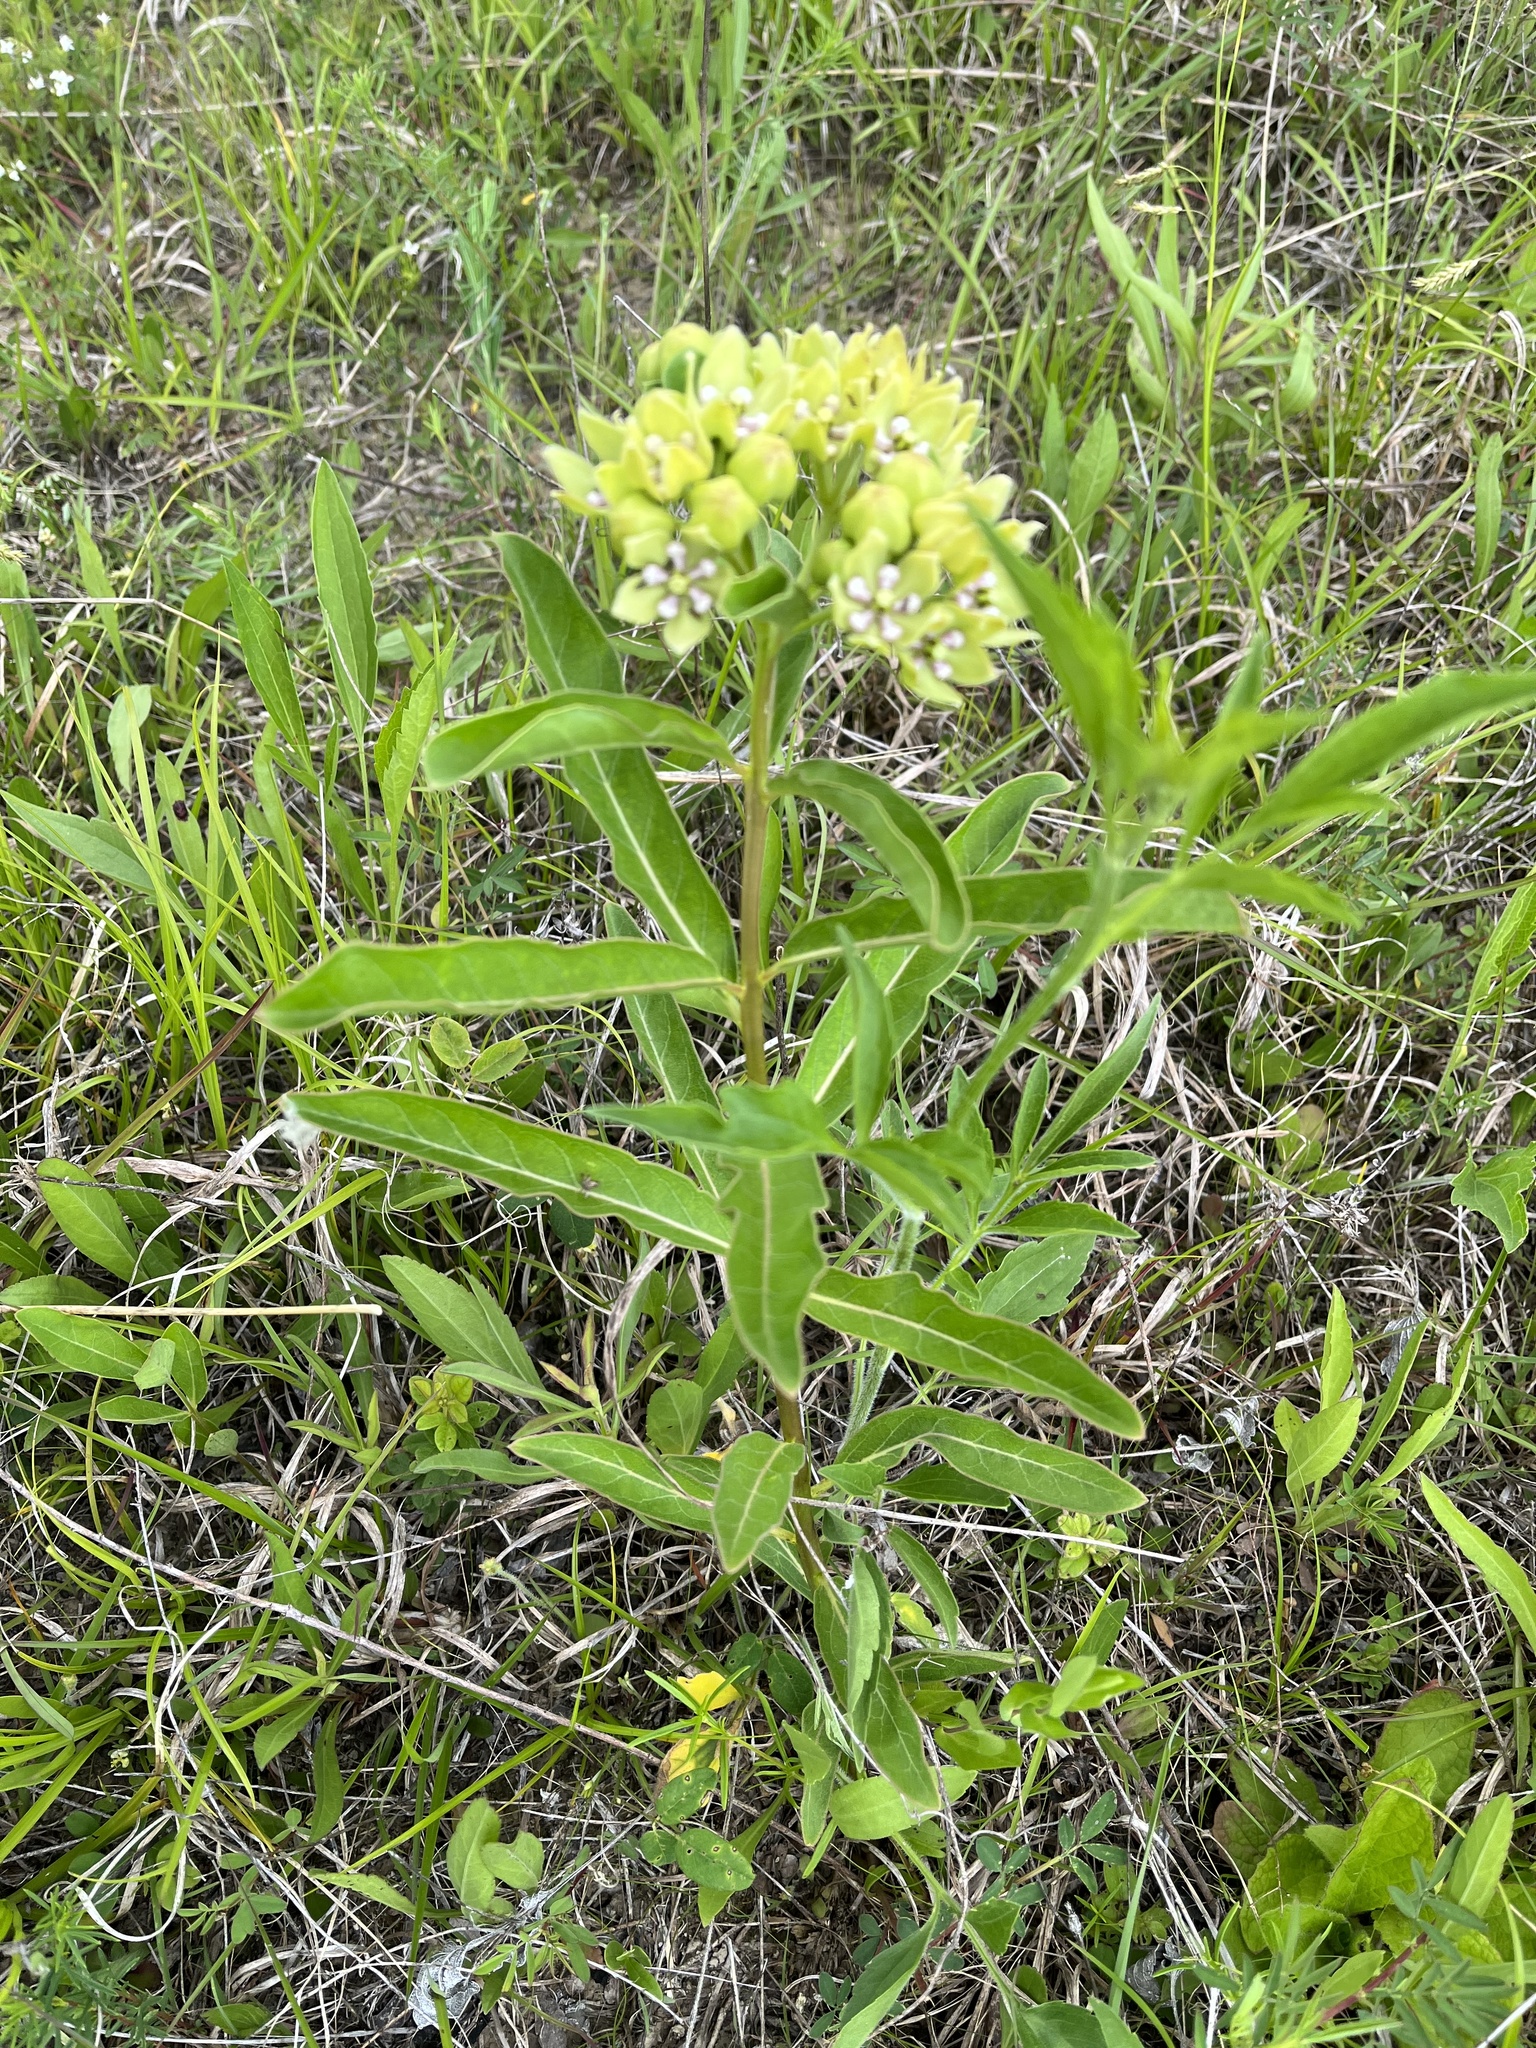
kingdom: Plantae
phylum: Tracheophyta
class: Magnoliopsida
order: Gentianales
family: Apocynaceae
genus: Asclepias
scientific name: Asclepias viridis
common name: Antelope-horns
